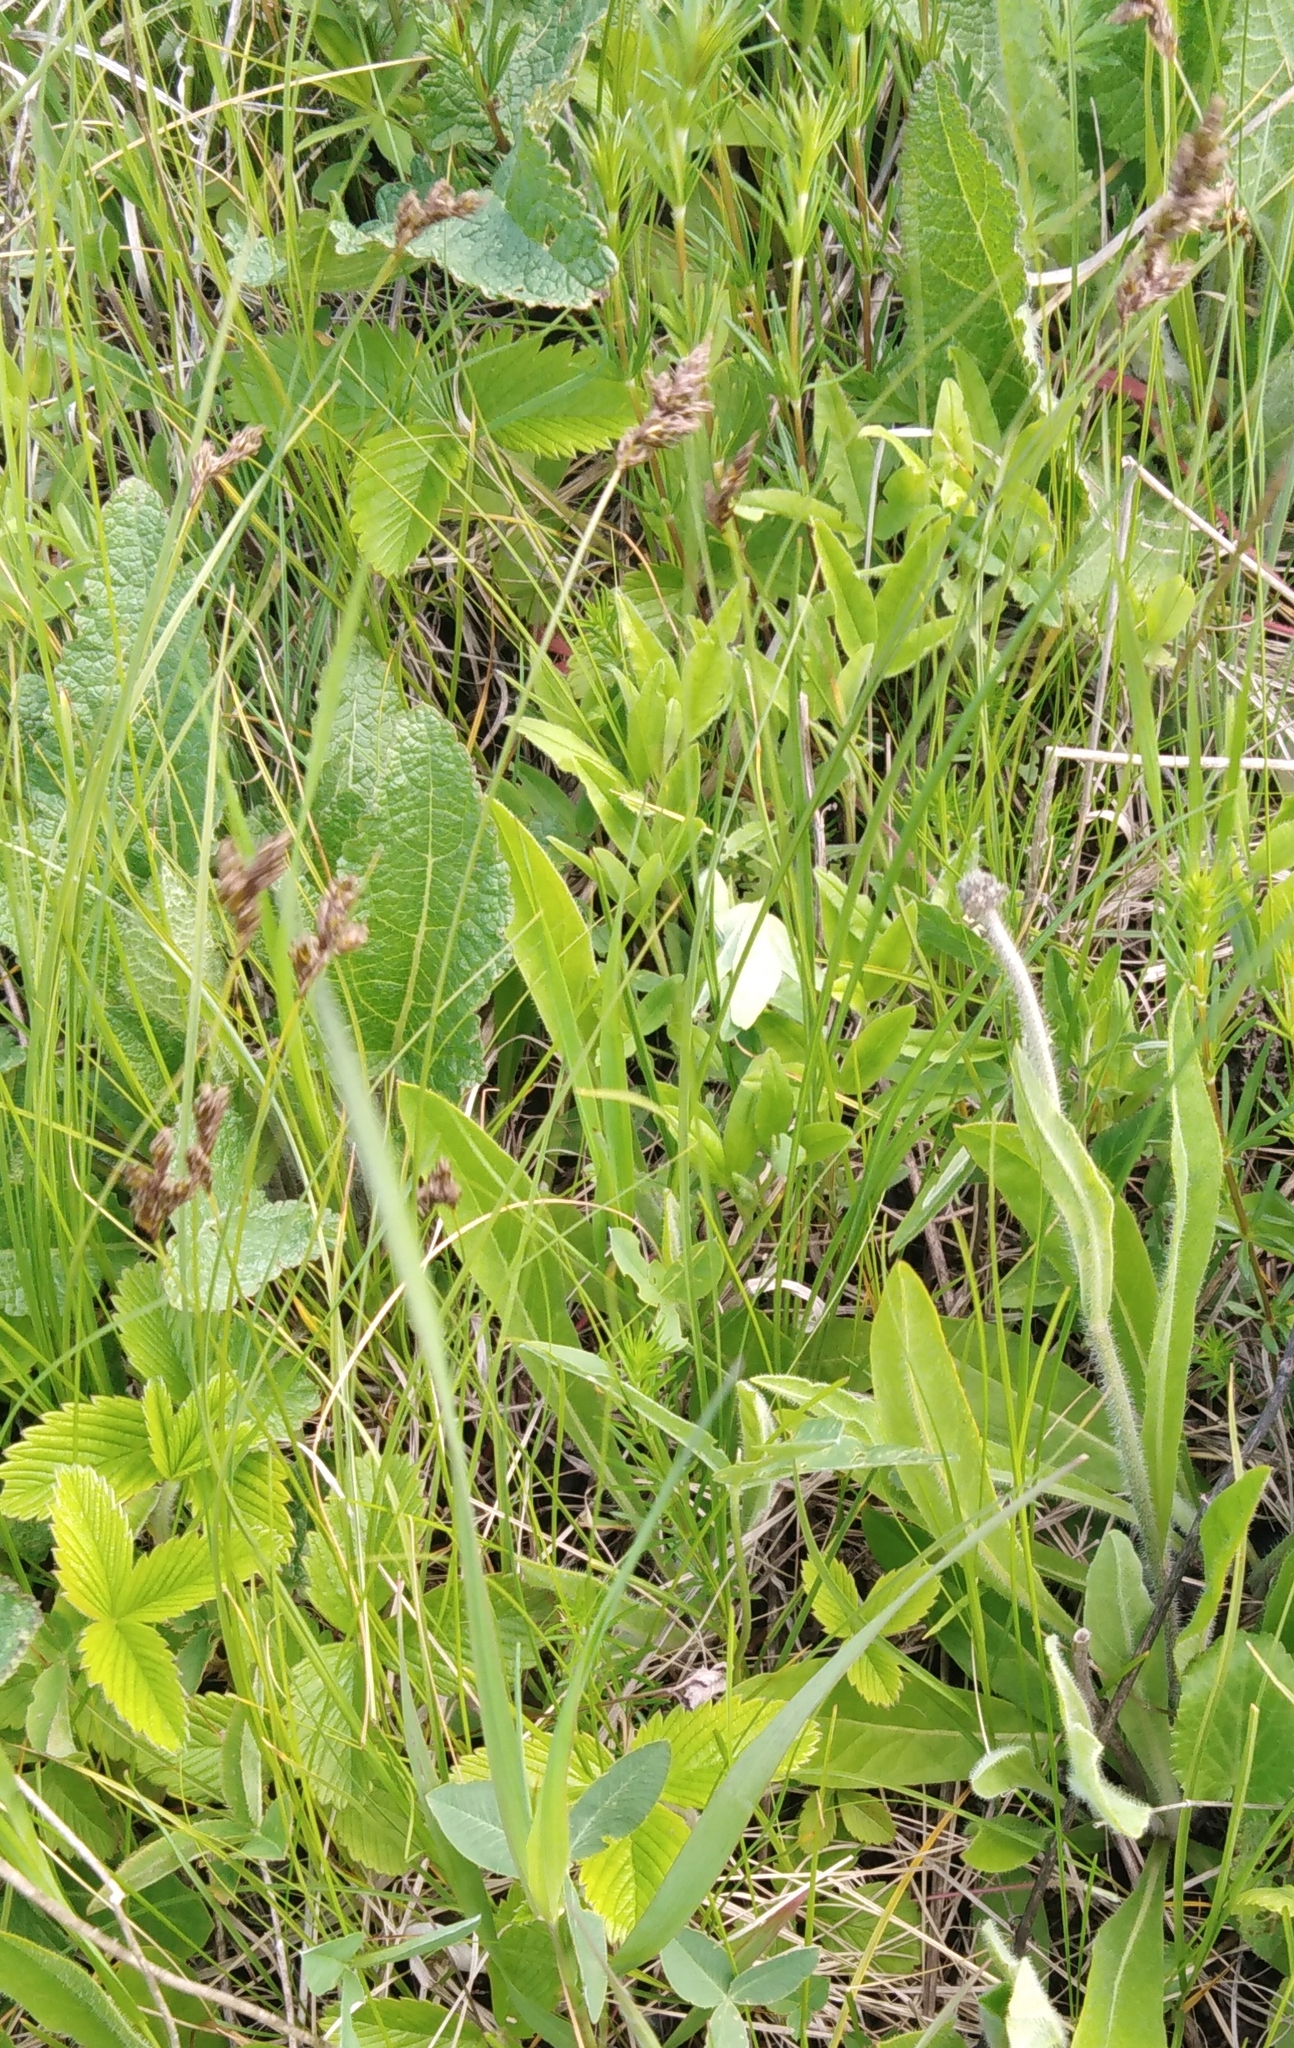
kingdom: Plantae
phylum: Tracheophyta
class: Liliopsida
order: Poales
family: Cyperaceae
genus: Carex
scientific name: Carex praecox
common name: Early sedge
